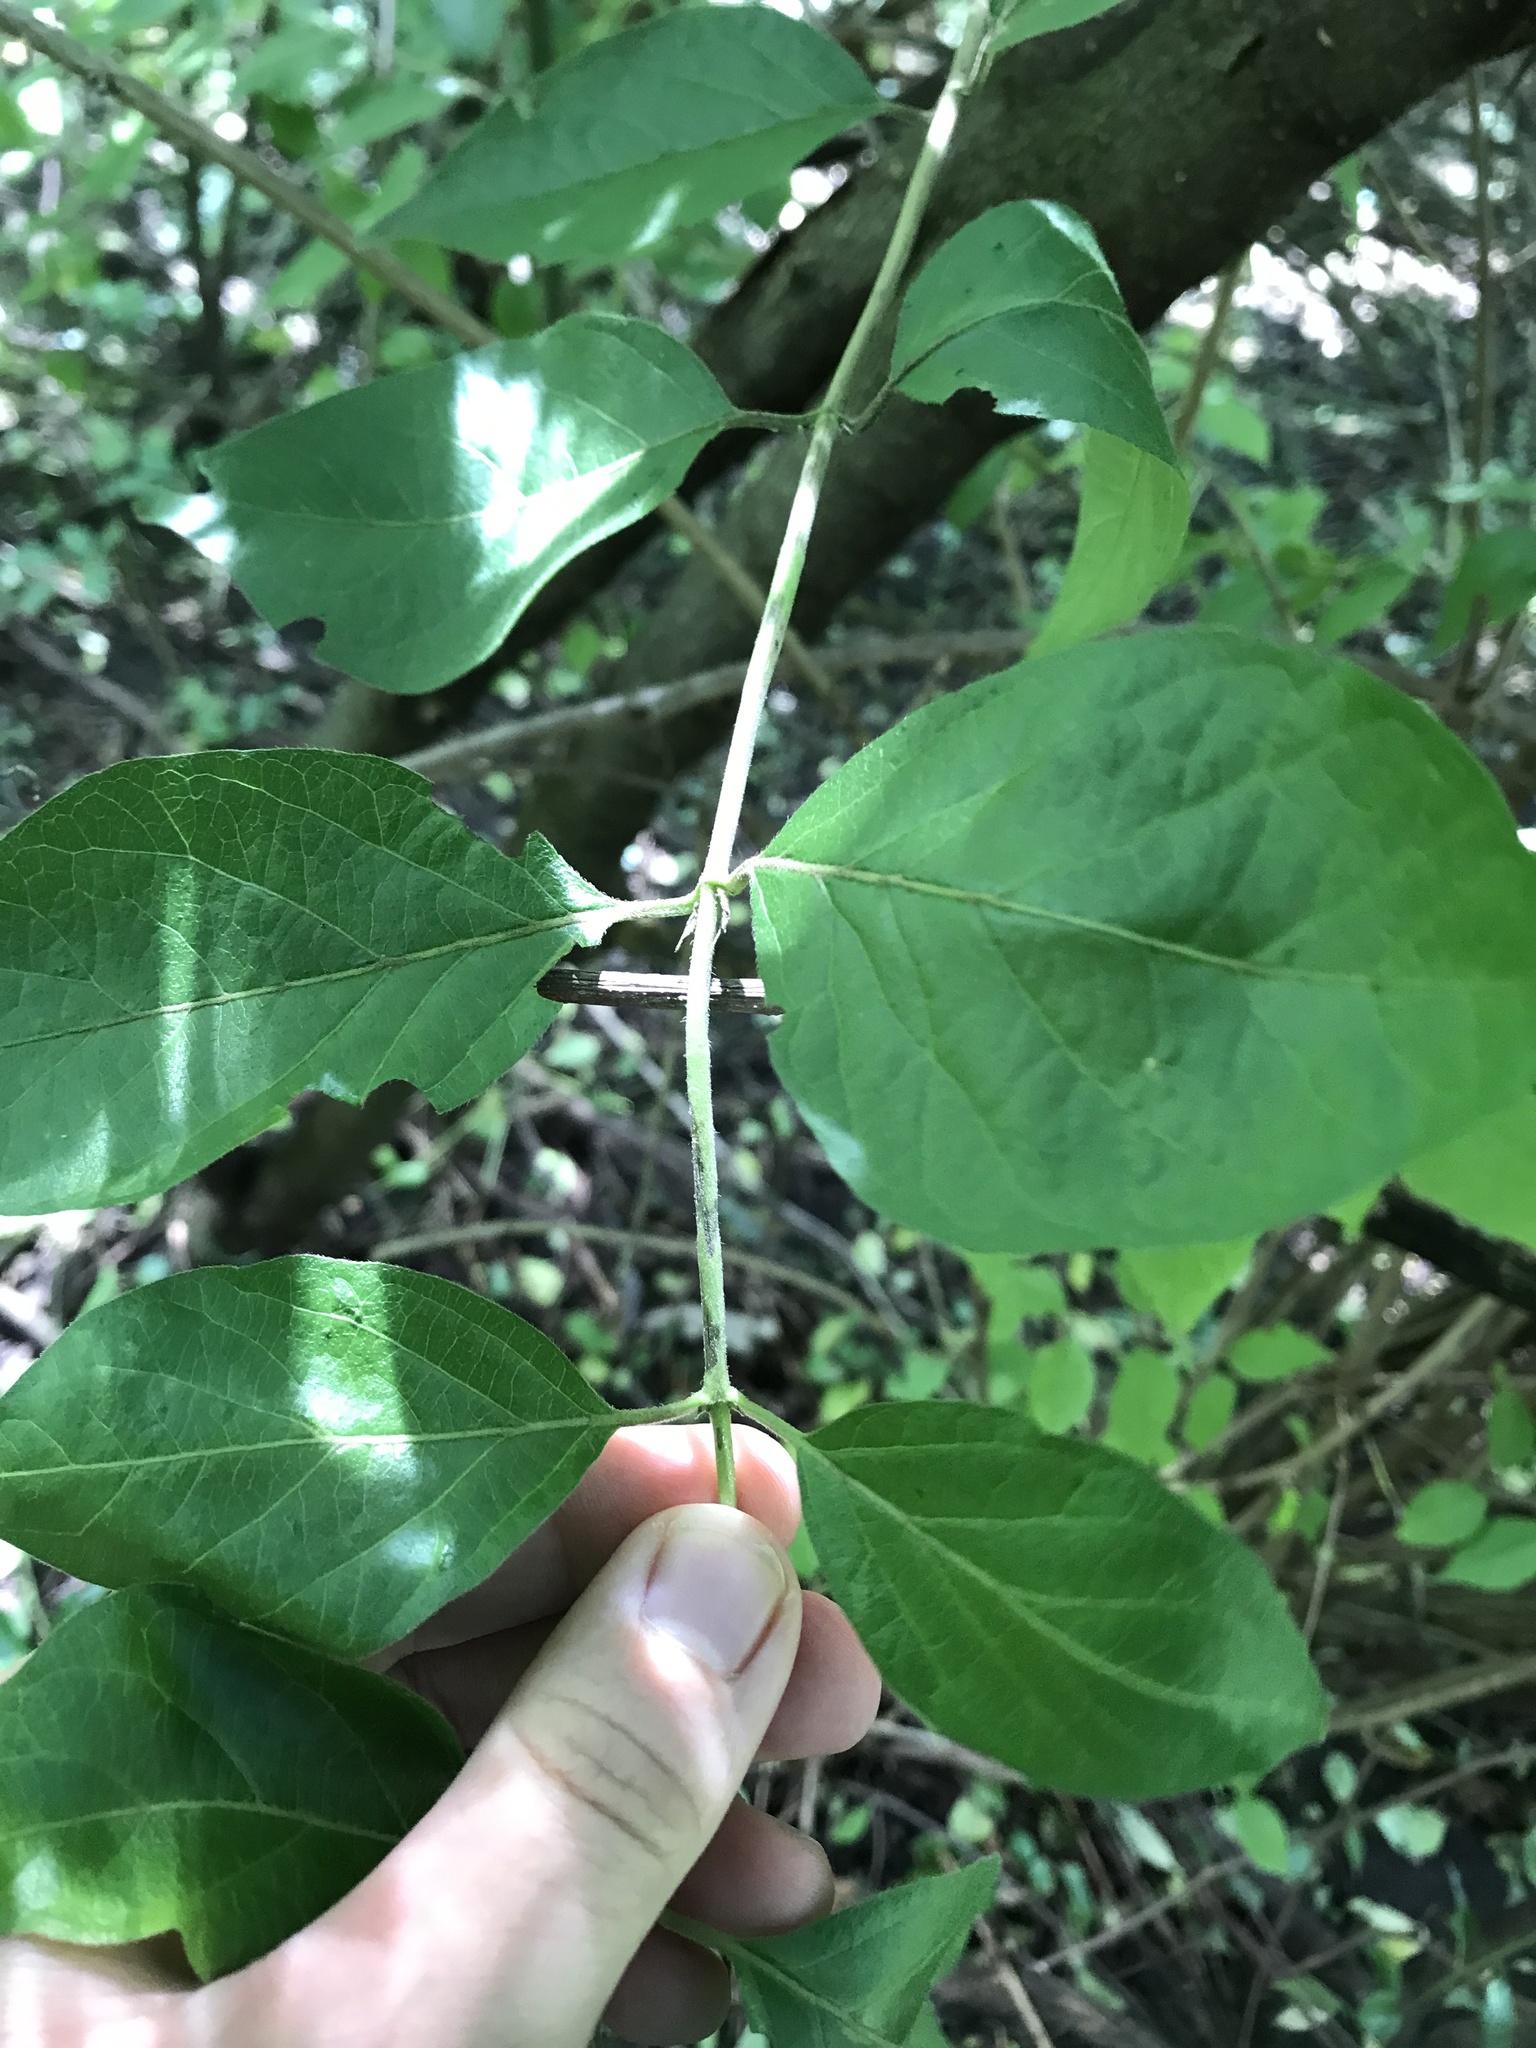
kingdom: Plantae
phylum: Tracheophyta
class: Magnoliopsida
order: Dipsacales
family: Caprifoliaceae
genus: Lonicera
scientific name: Lonicera maackii
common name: Amur honeysuckle
